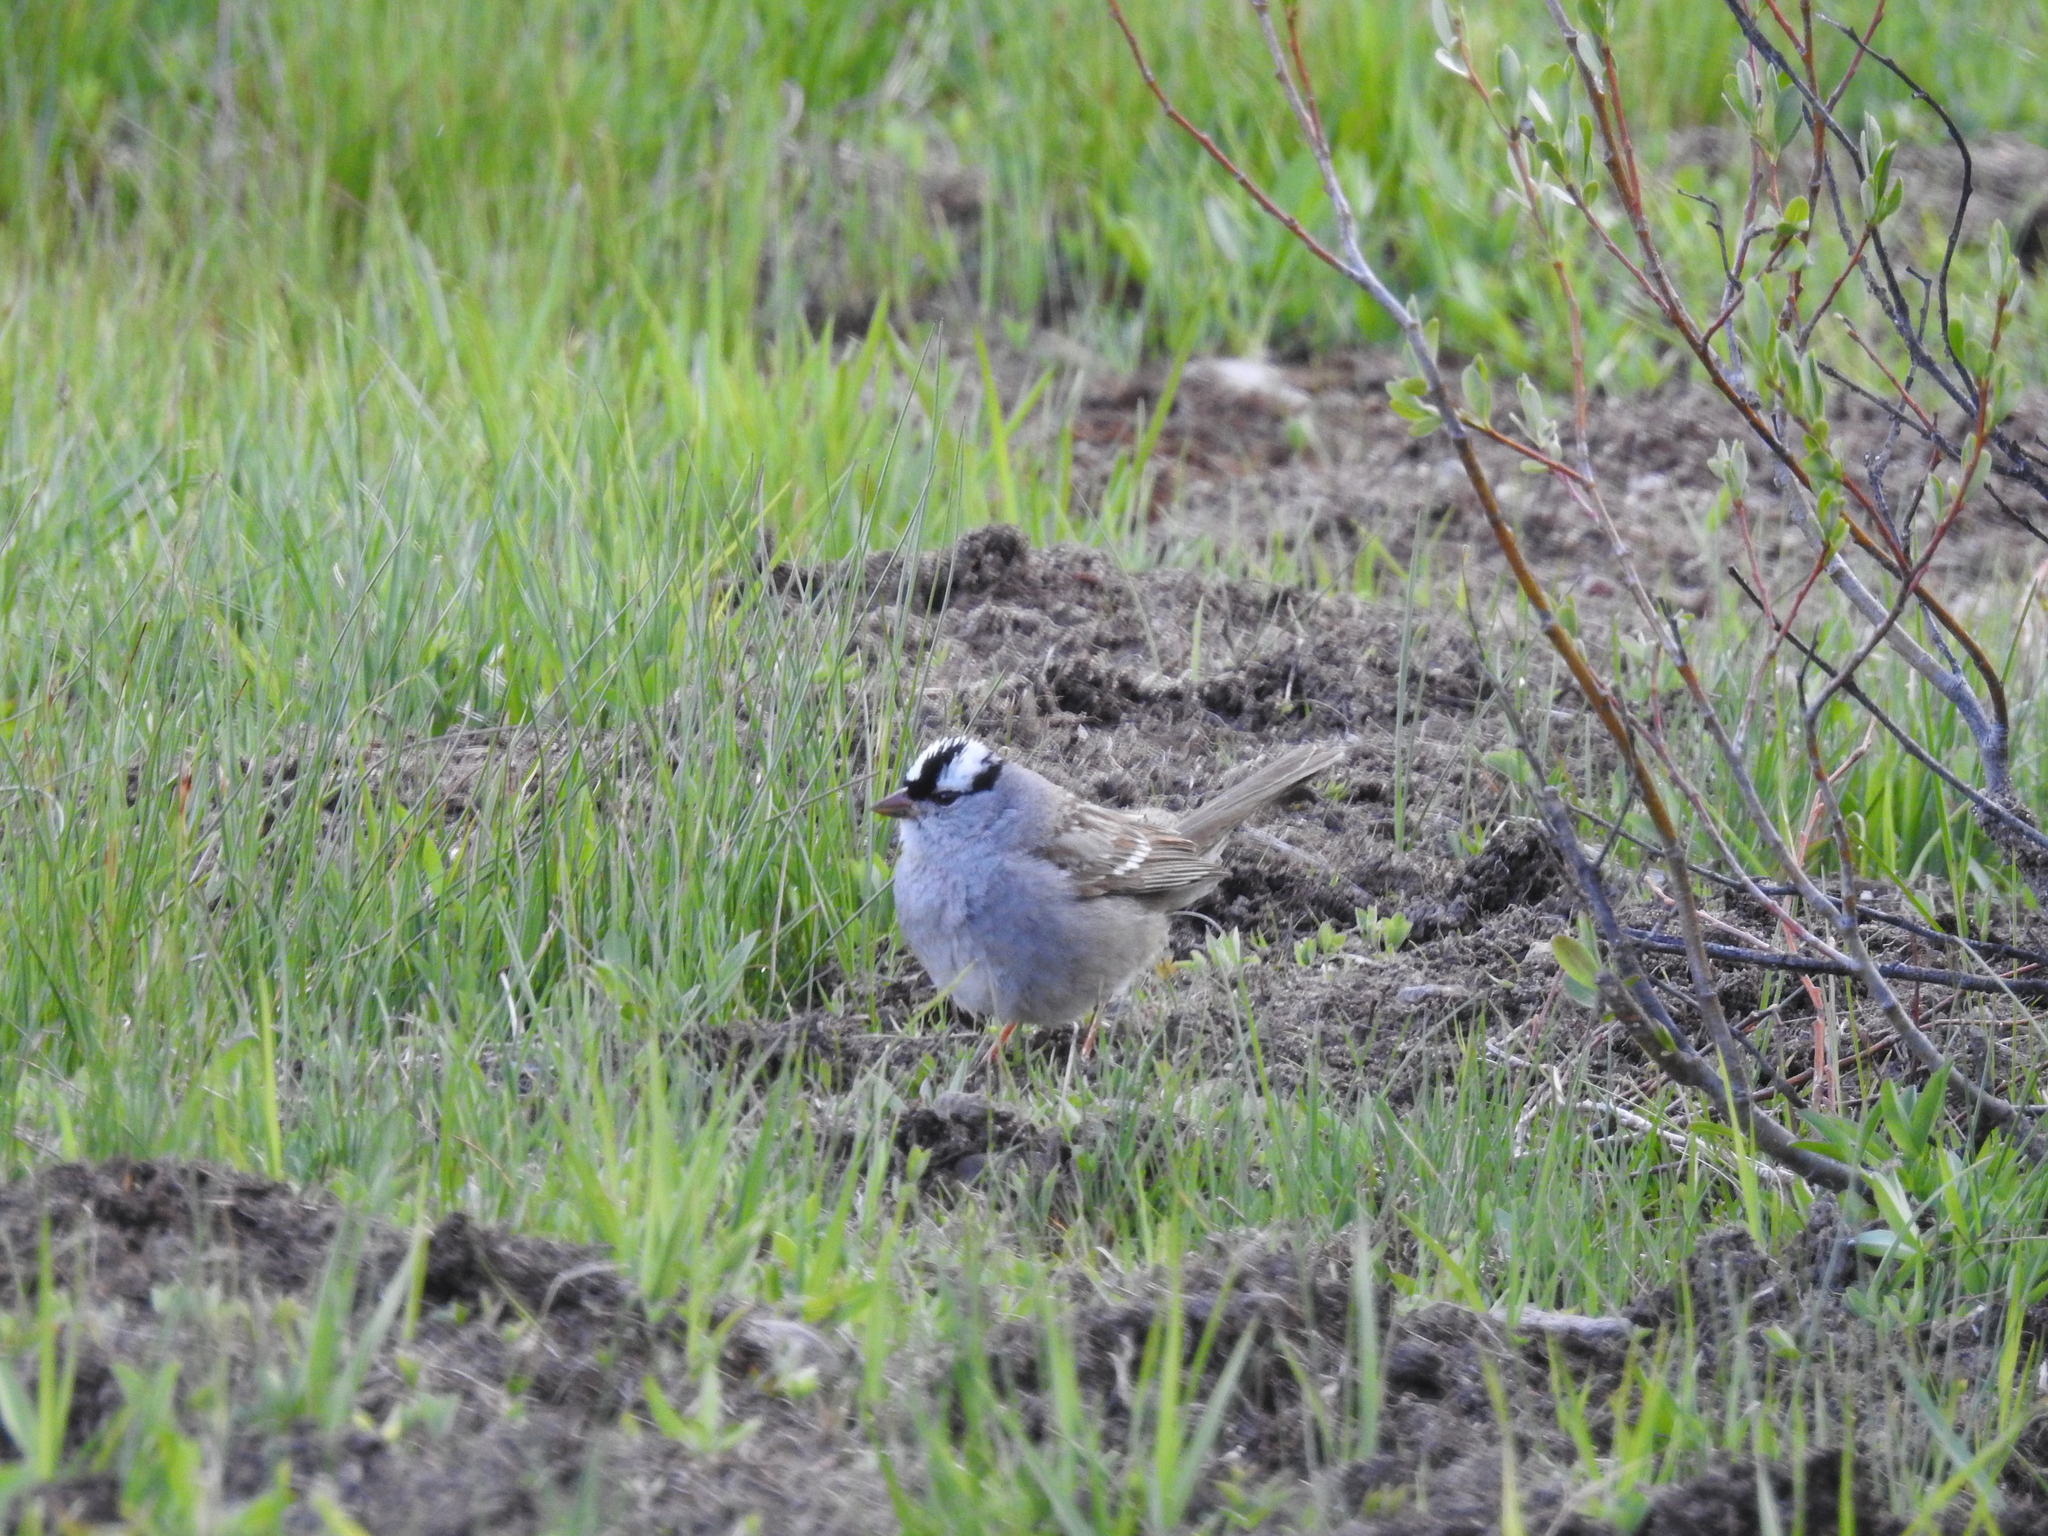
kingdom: Animalia
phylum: Chordata
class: Aves
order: Passeriformes
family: Passerellidae
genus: Zonotrichia
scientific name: Zonotrichia leucophrys
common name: White-crowned sparrow
